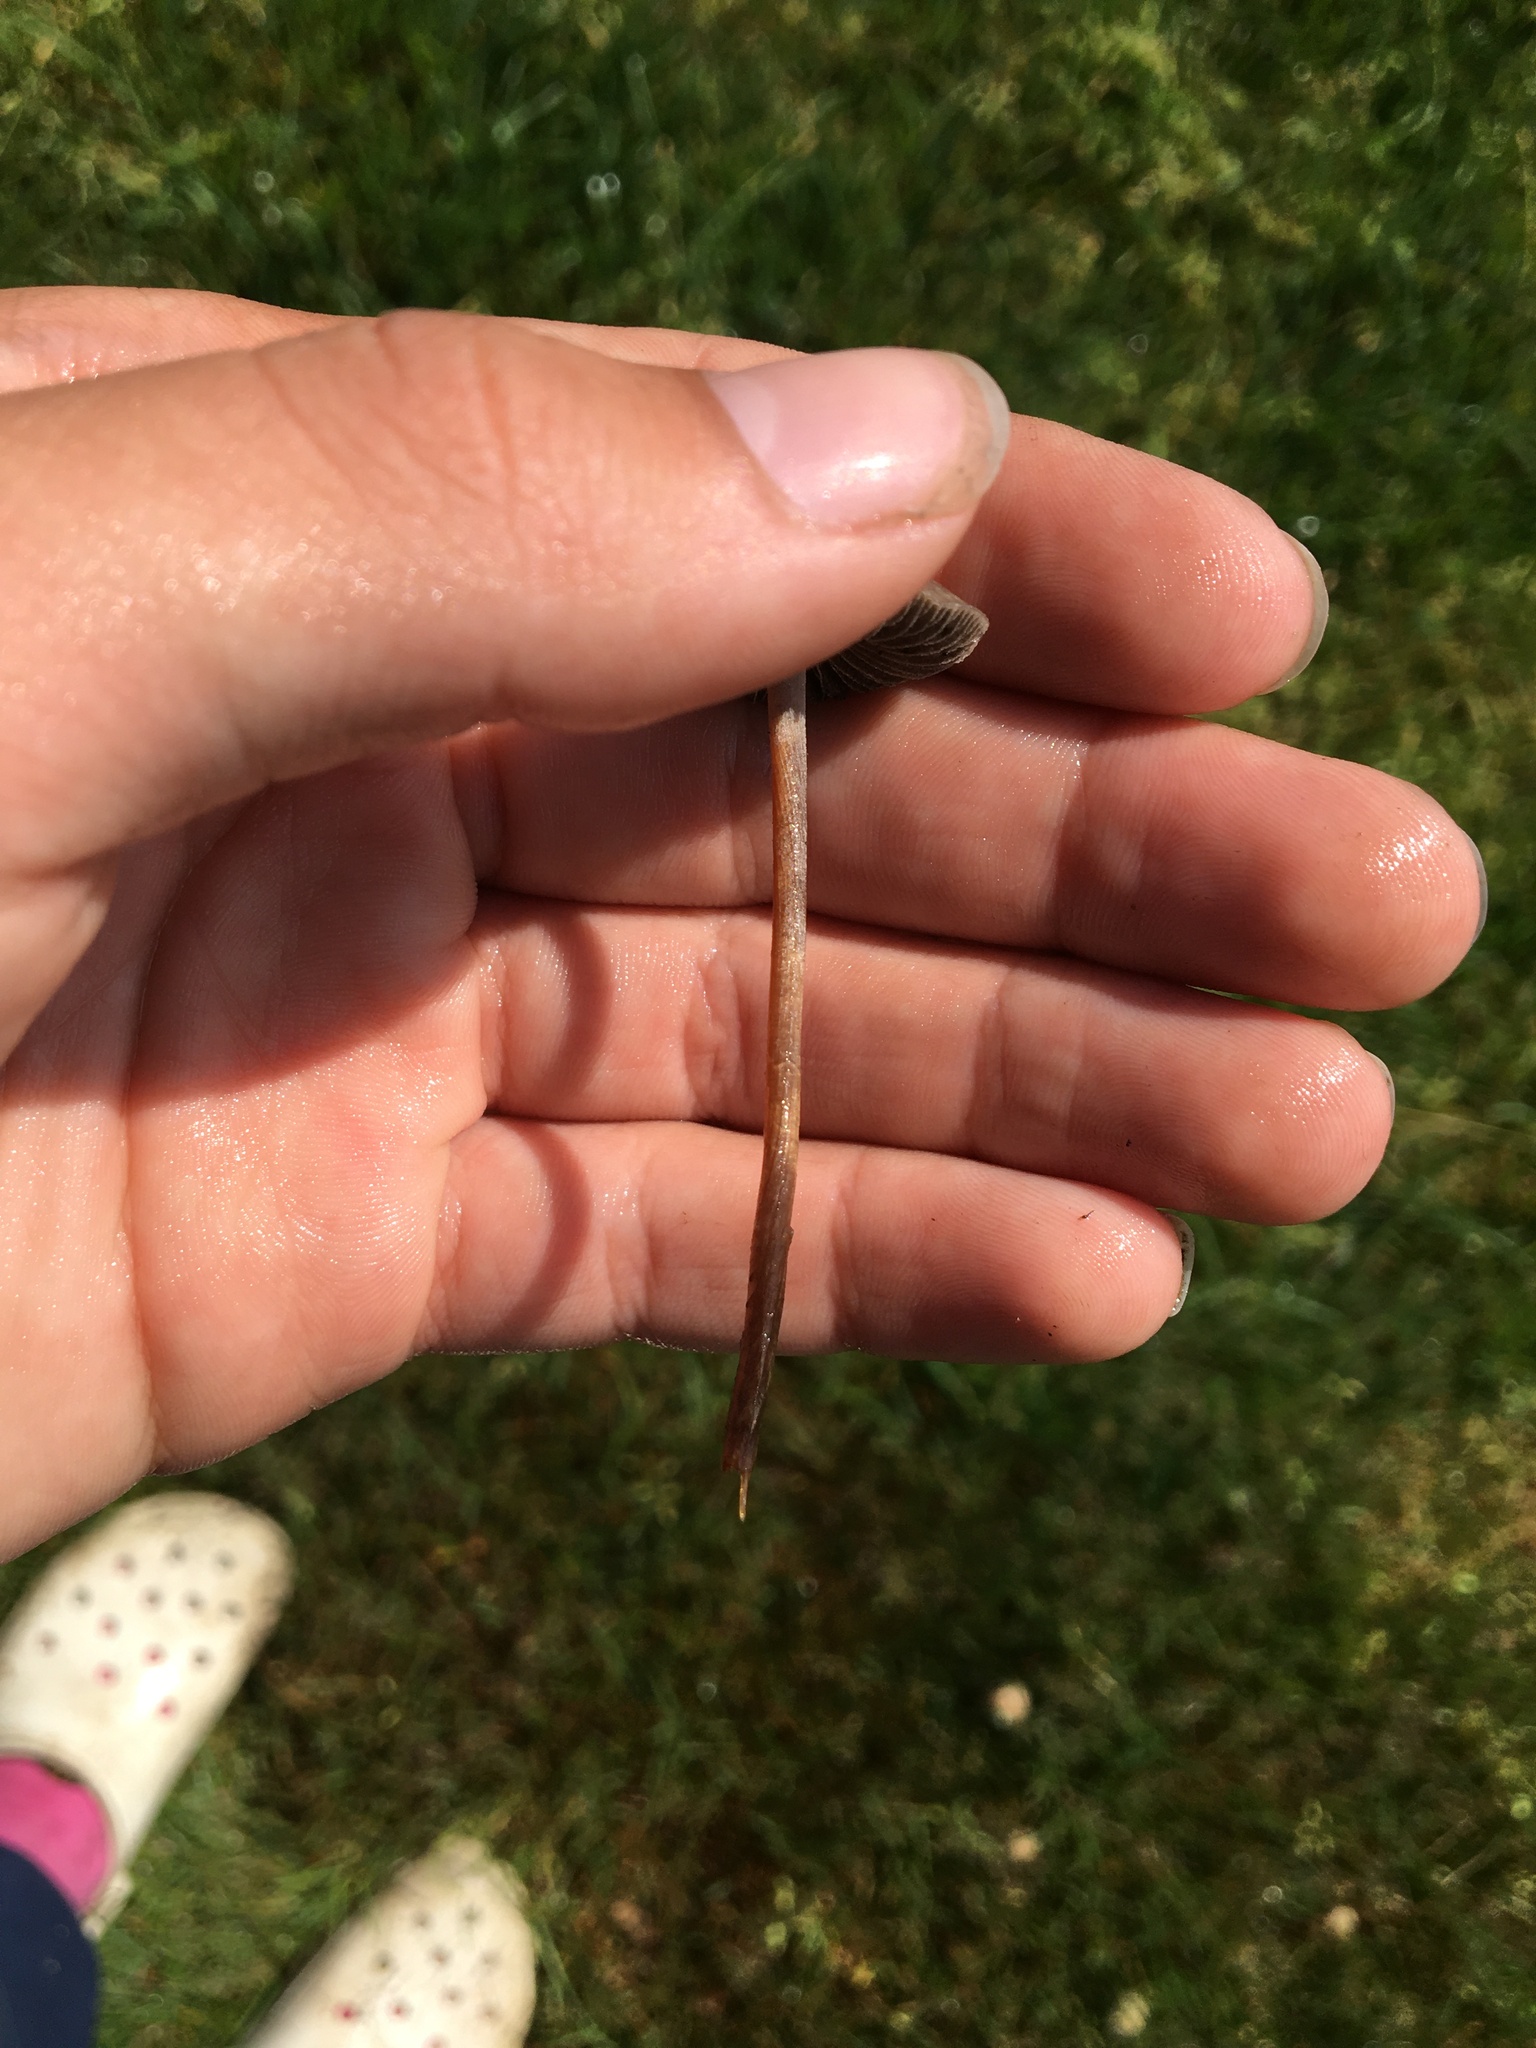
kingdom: Fungi
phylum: Basidiomycota
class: Agaricomycetes
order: Agaricales
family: Bolbitiaceae
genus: Panaeolus
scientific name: Panaeolus cinctulus
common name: Banded mottlegill
